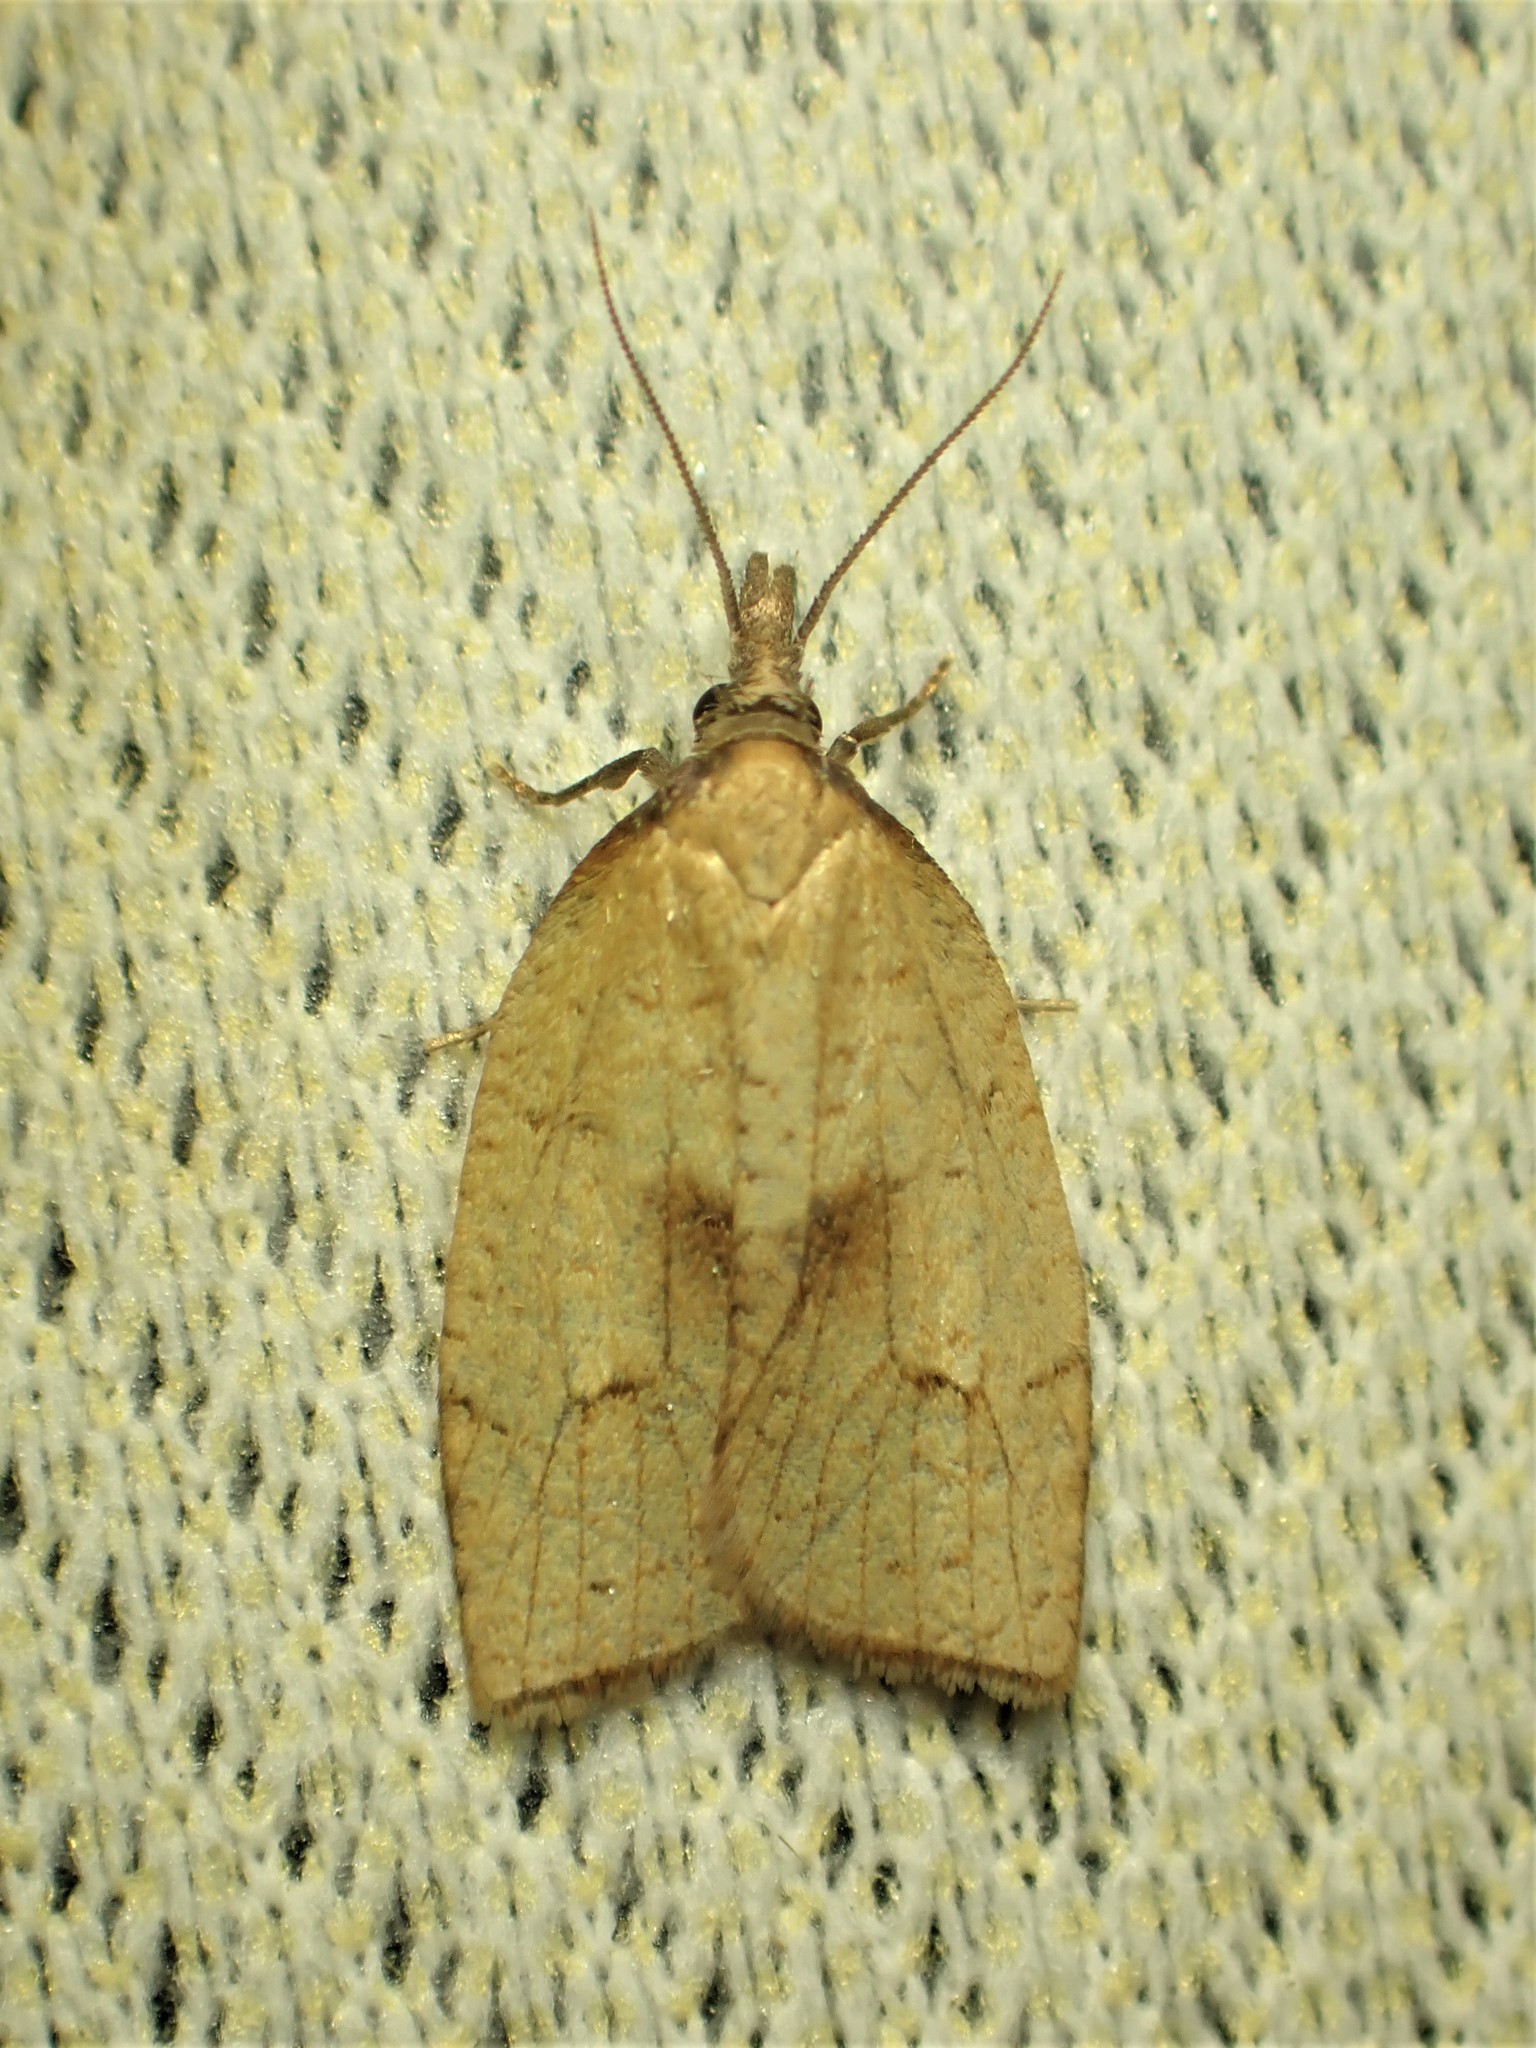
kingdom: Animalia
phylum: Arthropoda
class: Insecta
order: Lepidoptera
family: Tortricidae
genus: Sparganothis
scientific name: Sparganothis xanthoides
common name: Mosaic sparganothis moth
